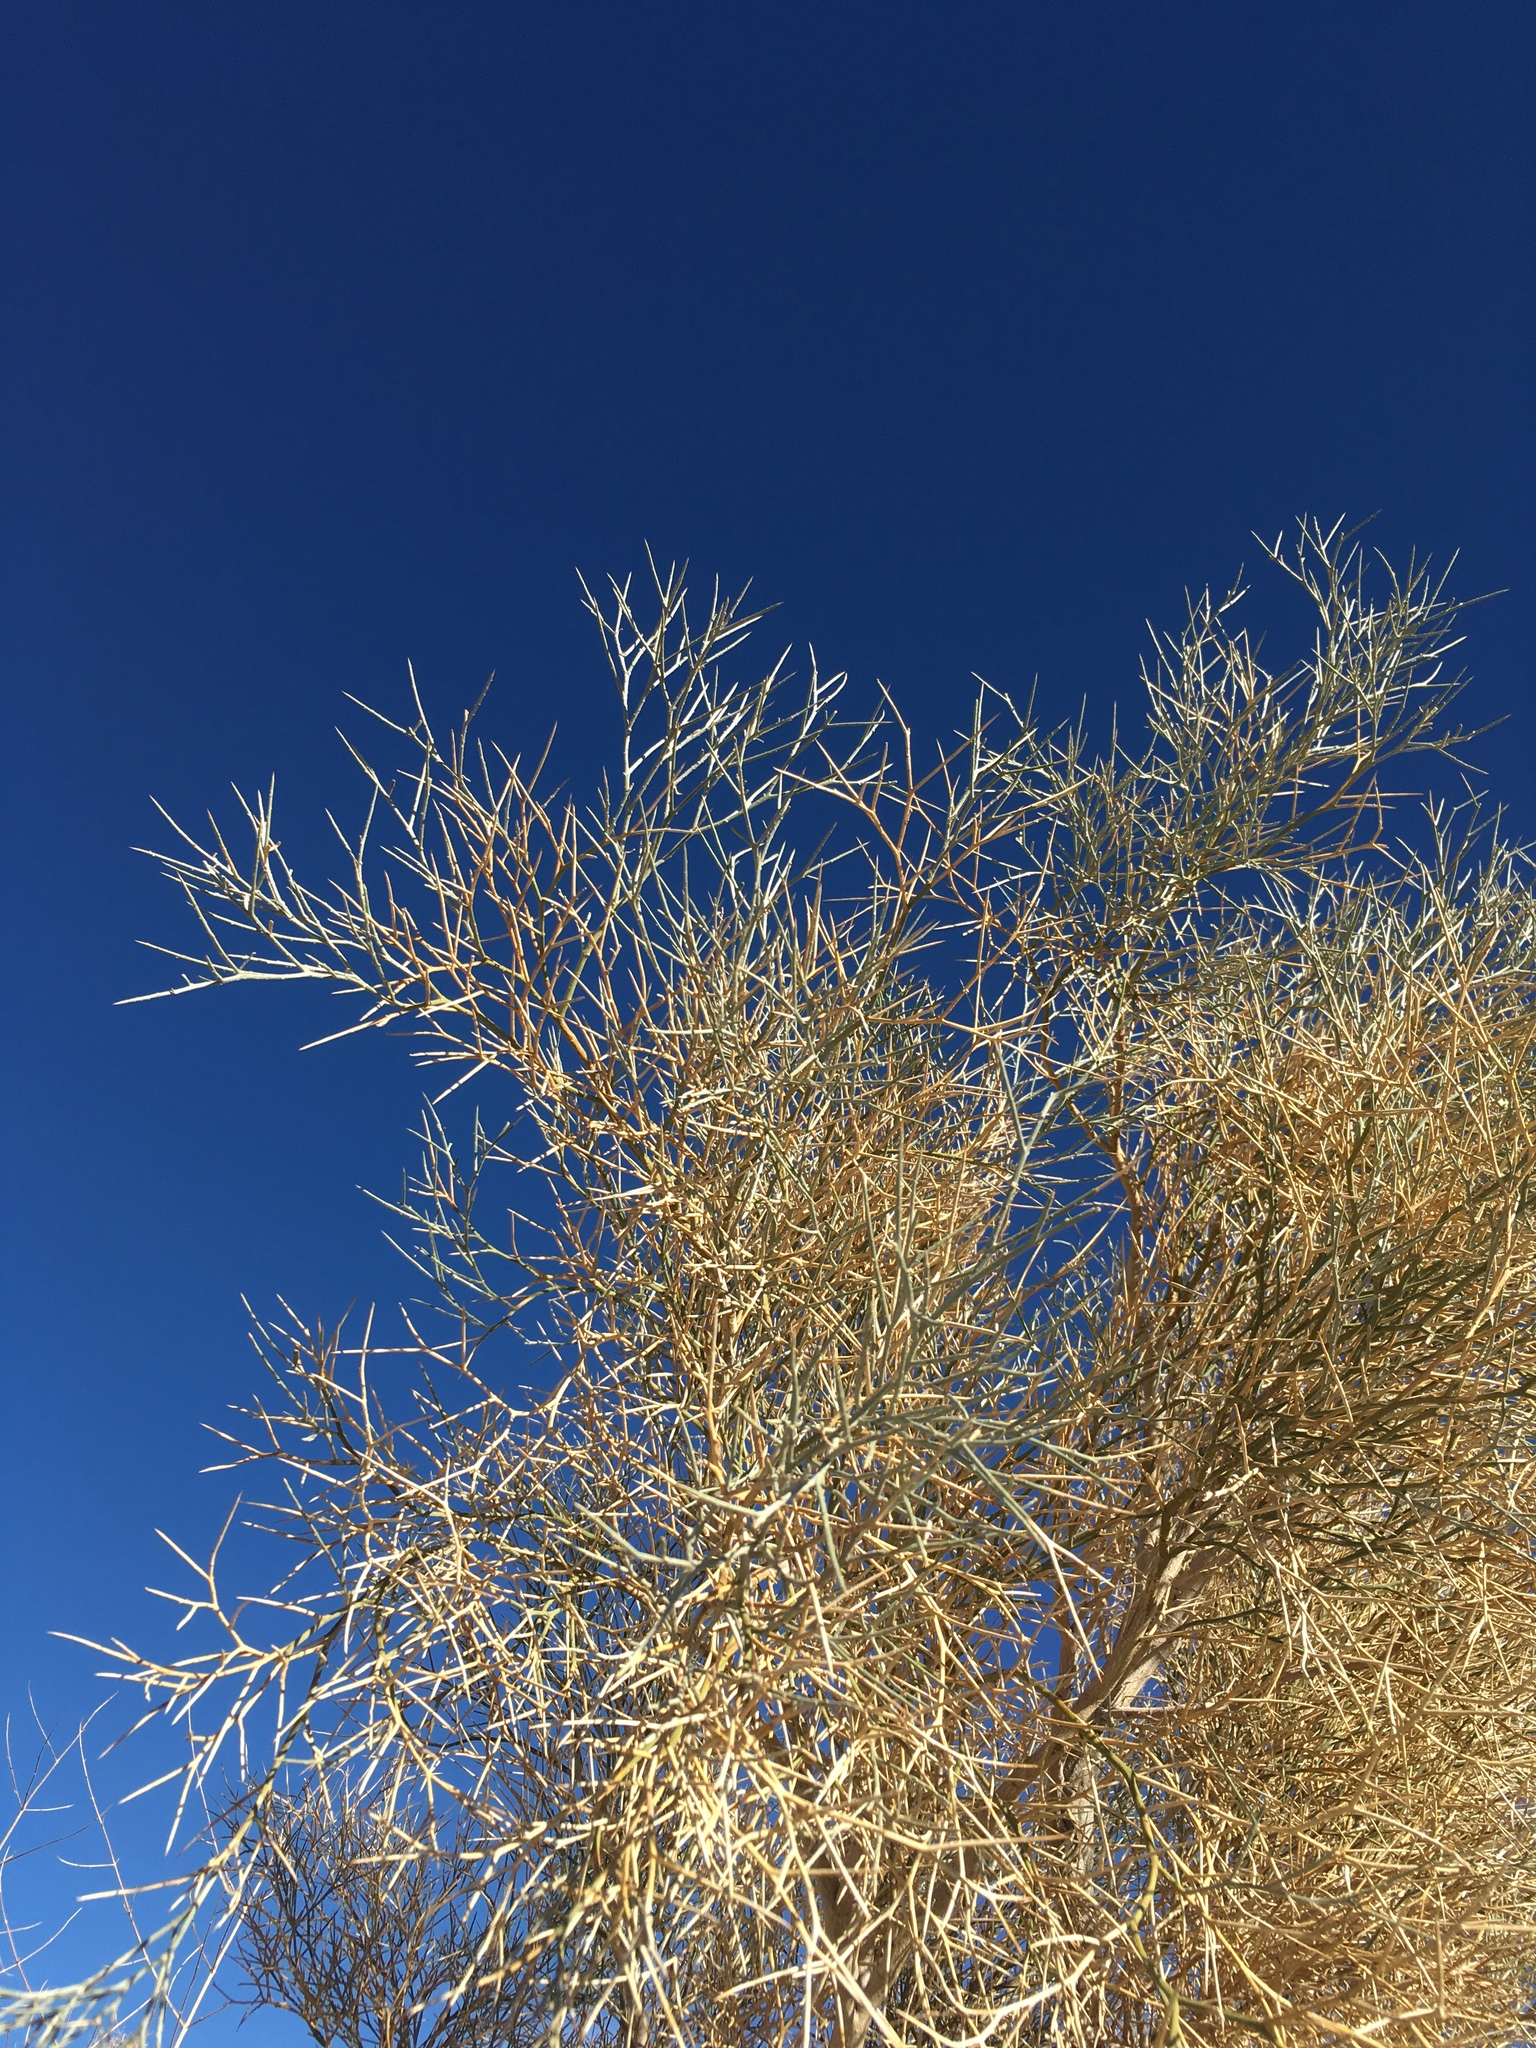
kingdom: Plantae
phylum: Tracheophyta
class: Magnoliopsida
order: Fabales
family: Fabaceae
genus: Psorothamnus
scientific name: Psorothamnus spinosus
